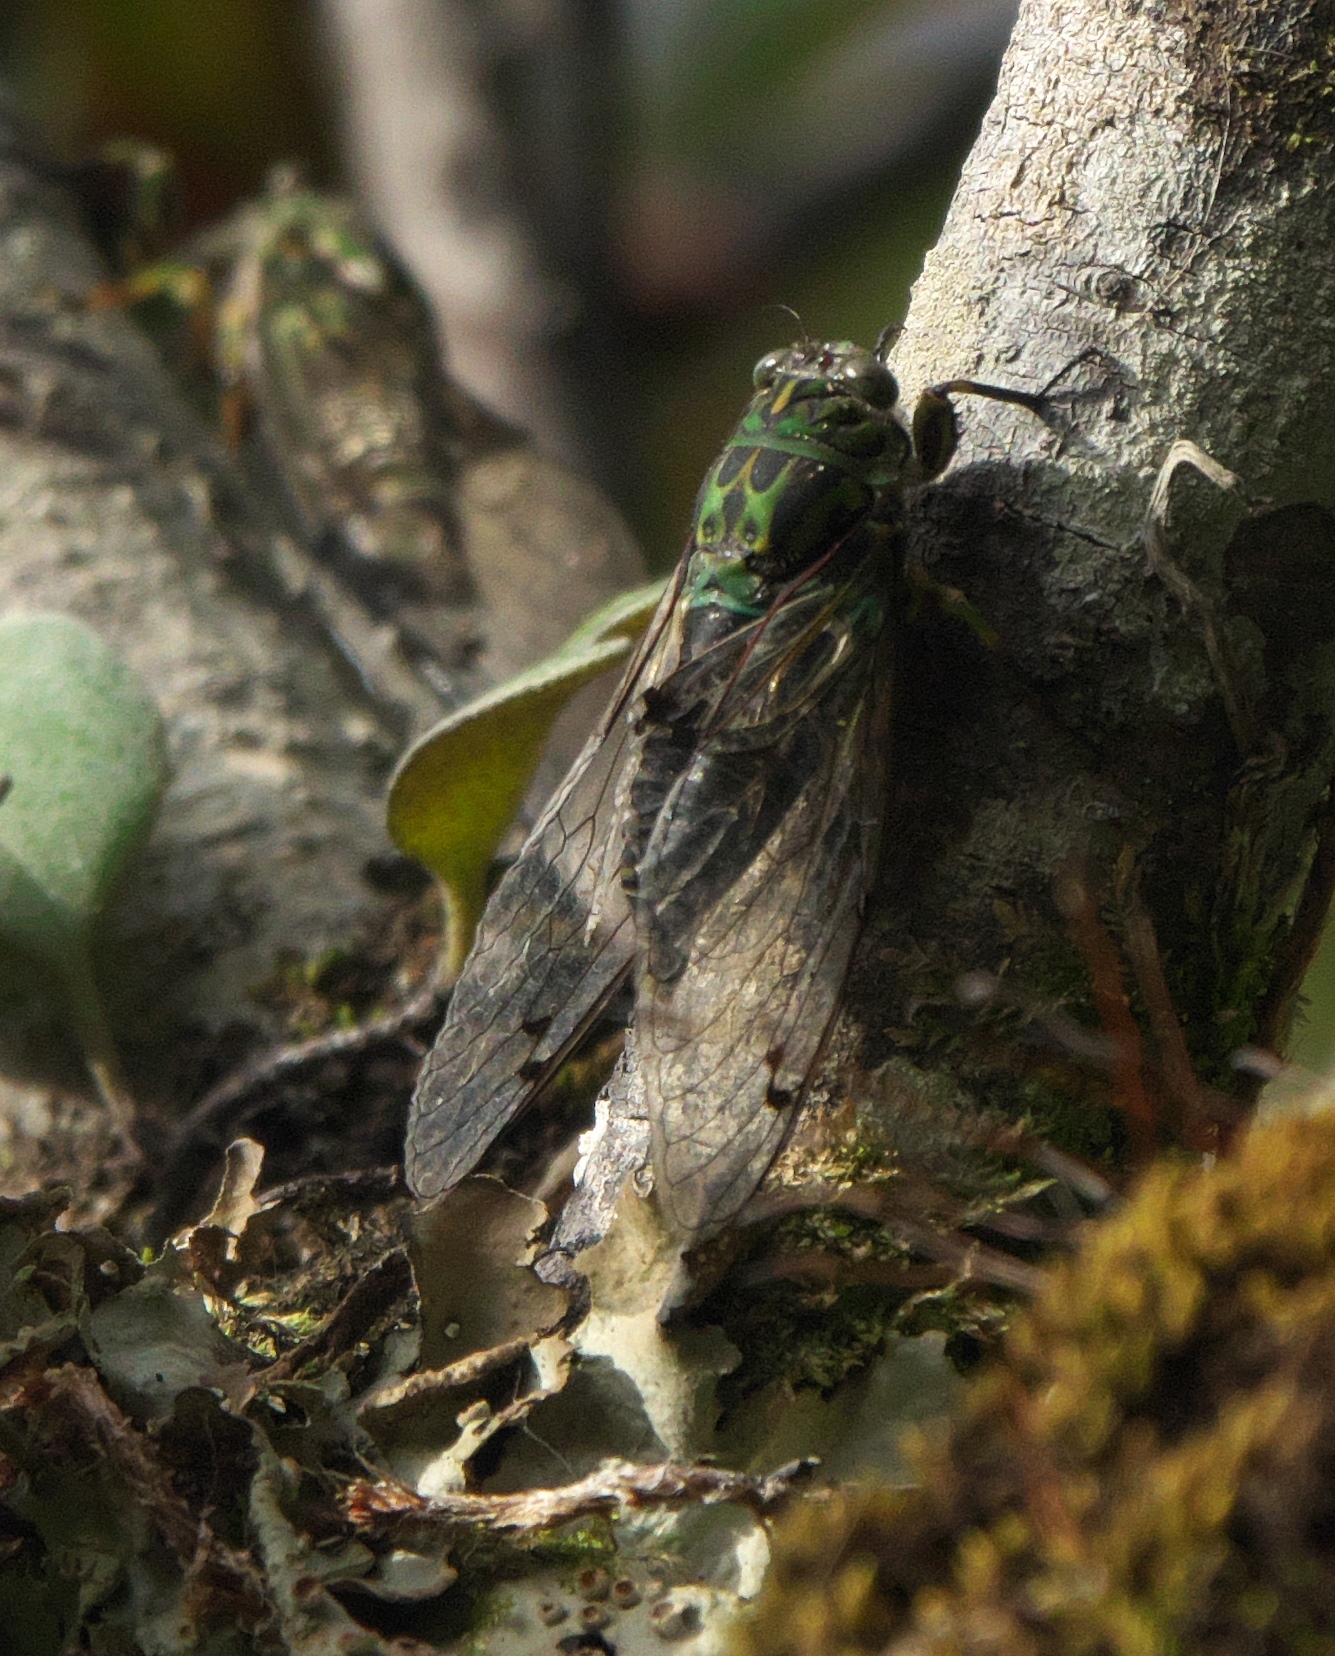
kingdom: Animalia
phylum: Arthropoda
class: Insecta
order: Hemiptera
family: Cicadidae
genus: Amphipsalta
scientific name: Amphipsalta zelandica
